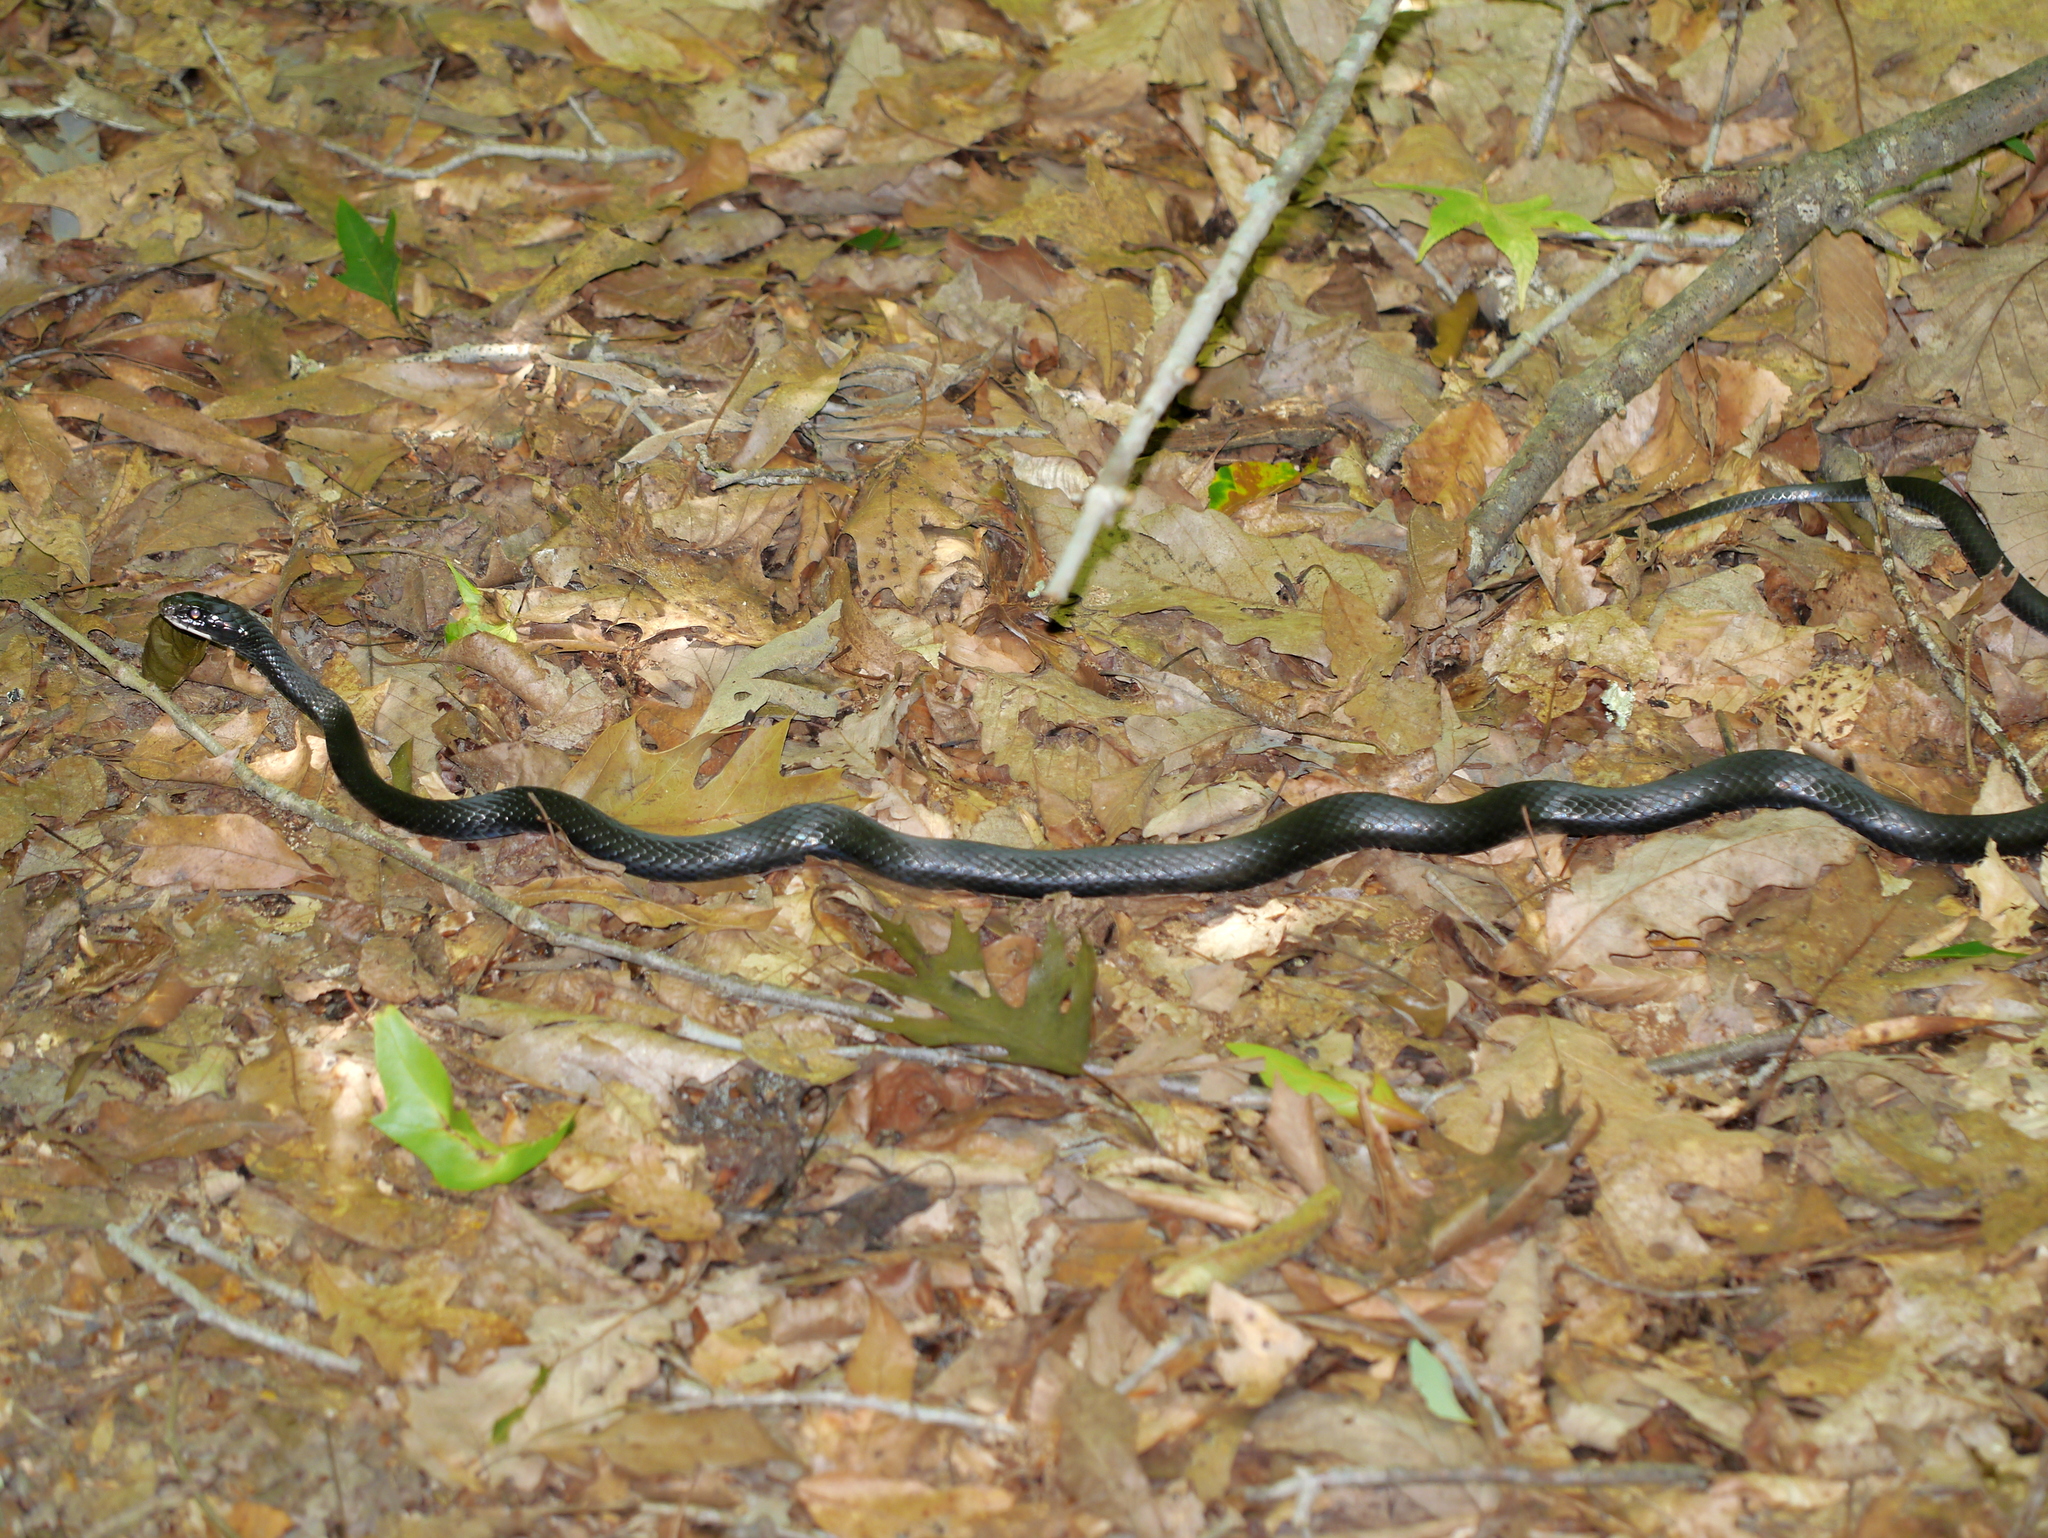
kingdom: Animalia
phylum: Chordata
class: Squamata
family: Colubridae
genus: Coluber
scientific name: Coluber constrictor
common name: Eastern racer
